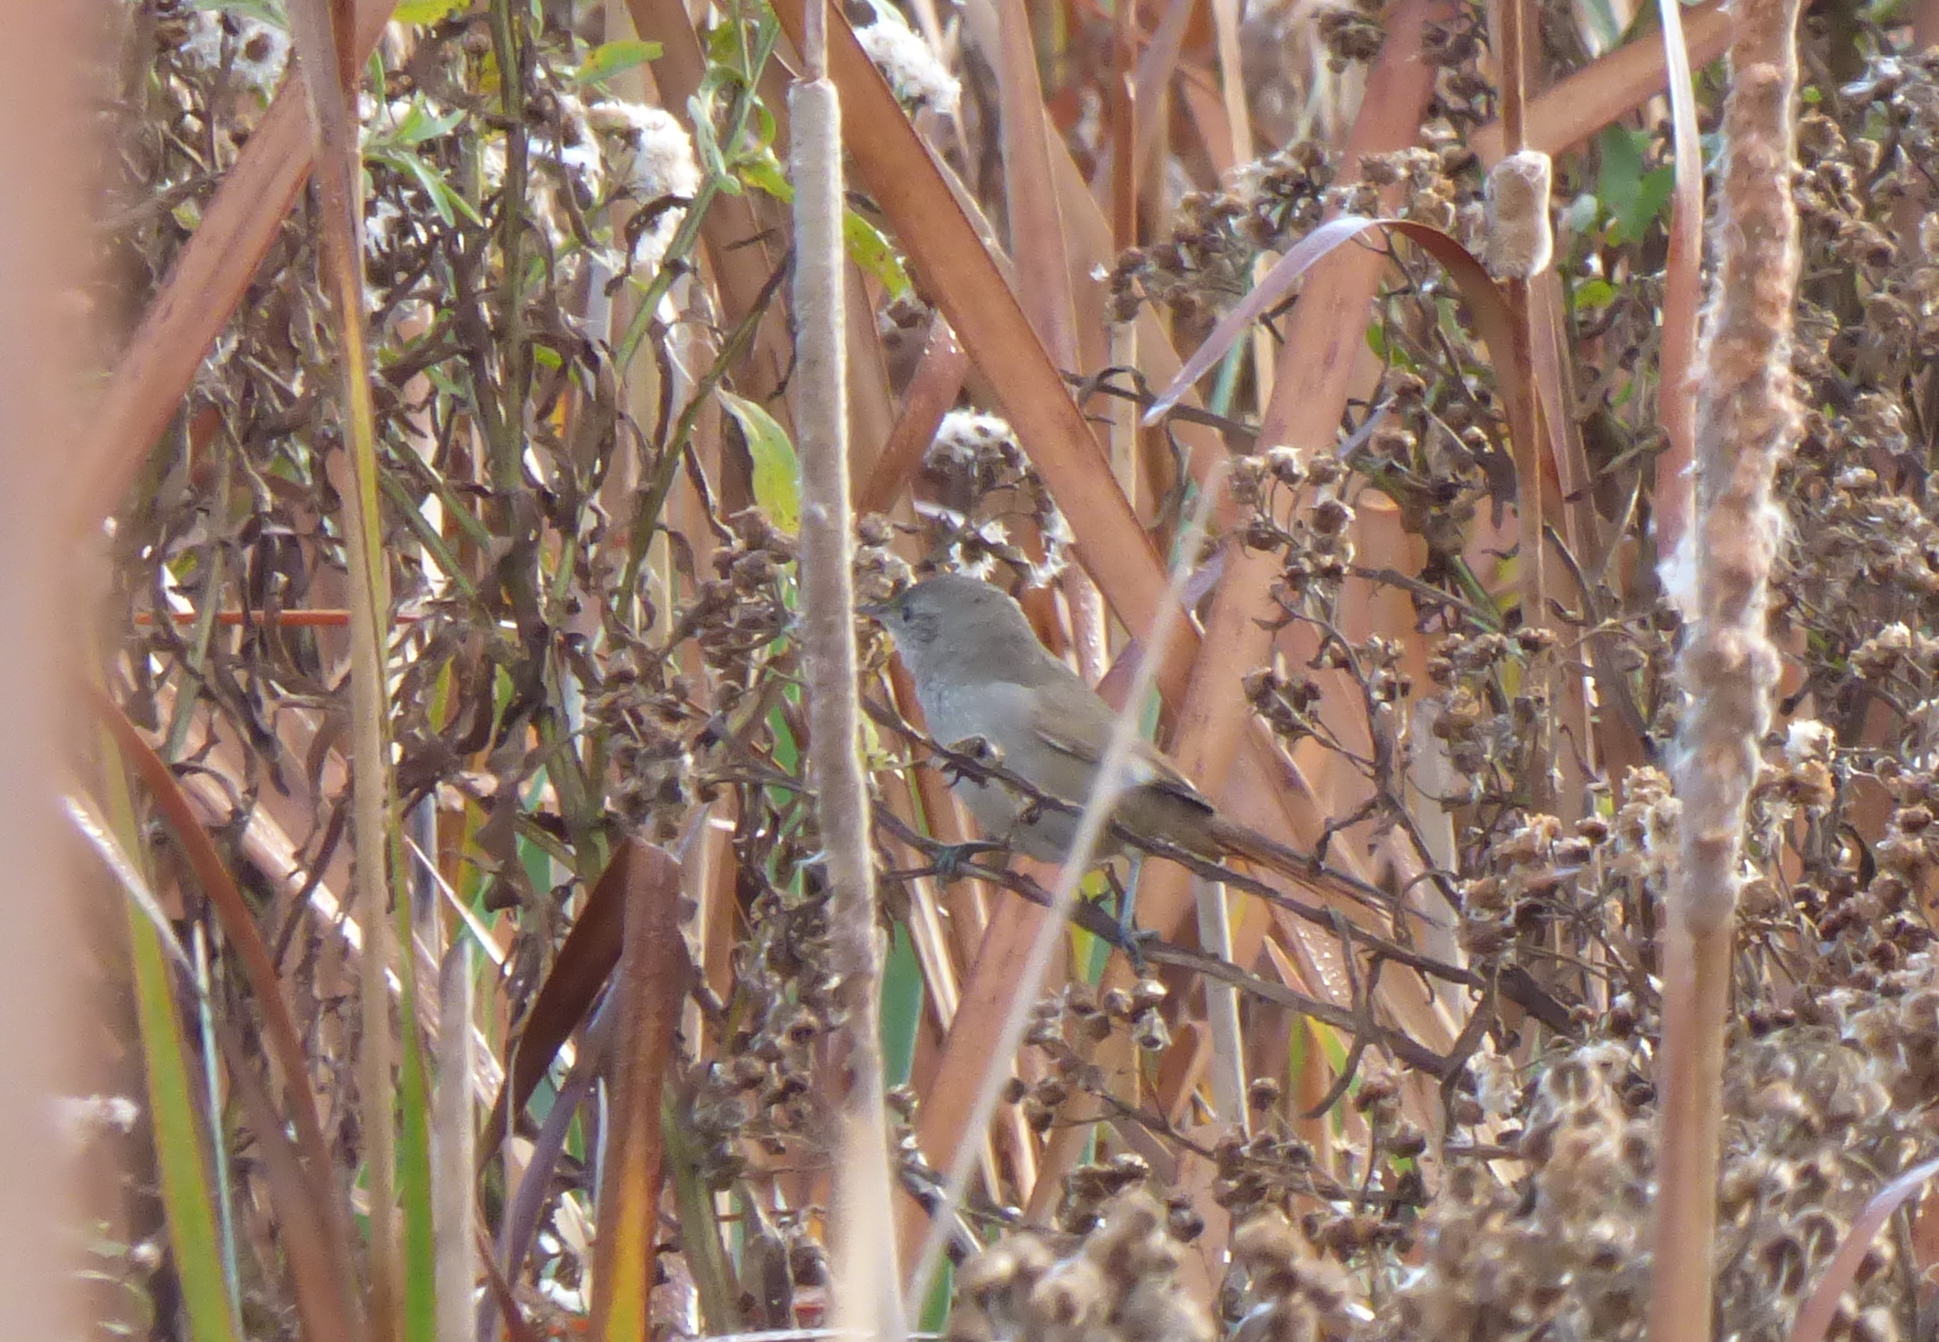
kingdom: Animalia
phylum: Chordata
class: Aves
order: Passeriformes
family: Furnariidae
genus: Asthenes
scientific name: Asthenes pyrrholeuca
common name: Sharp-billed canastero
